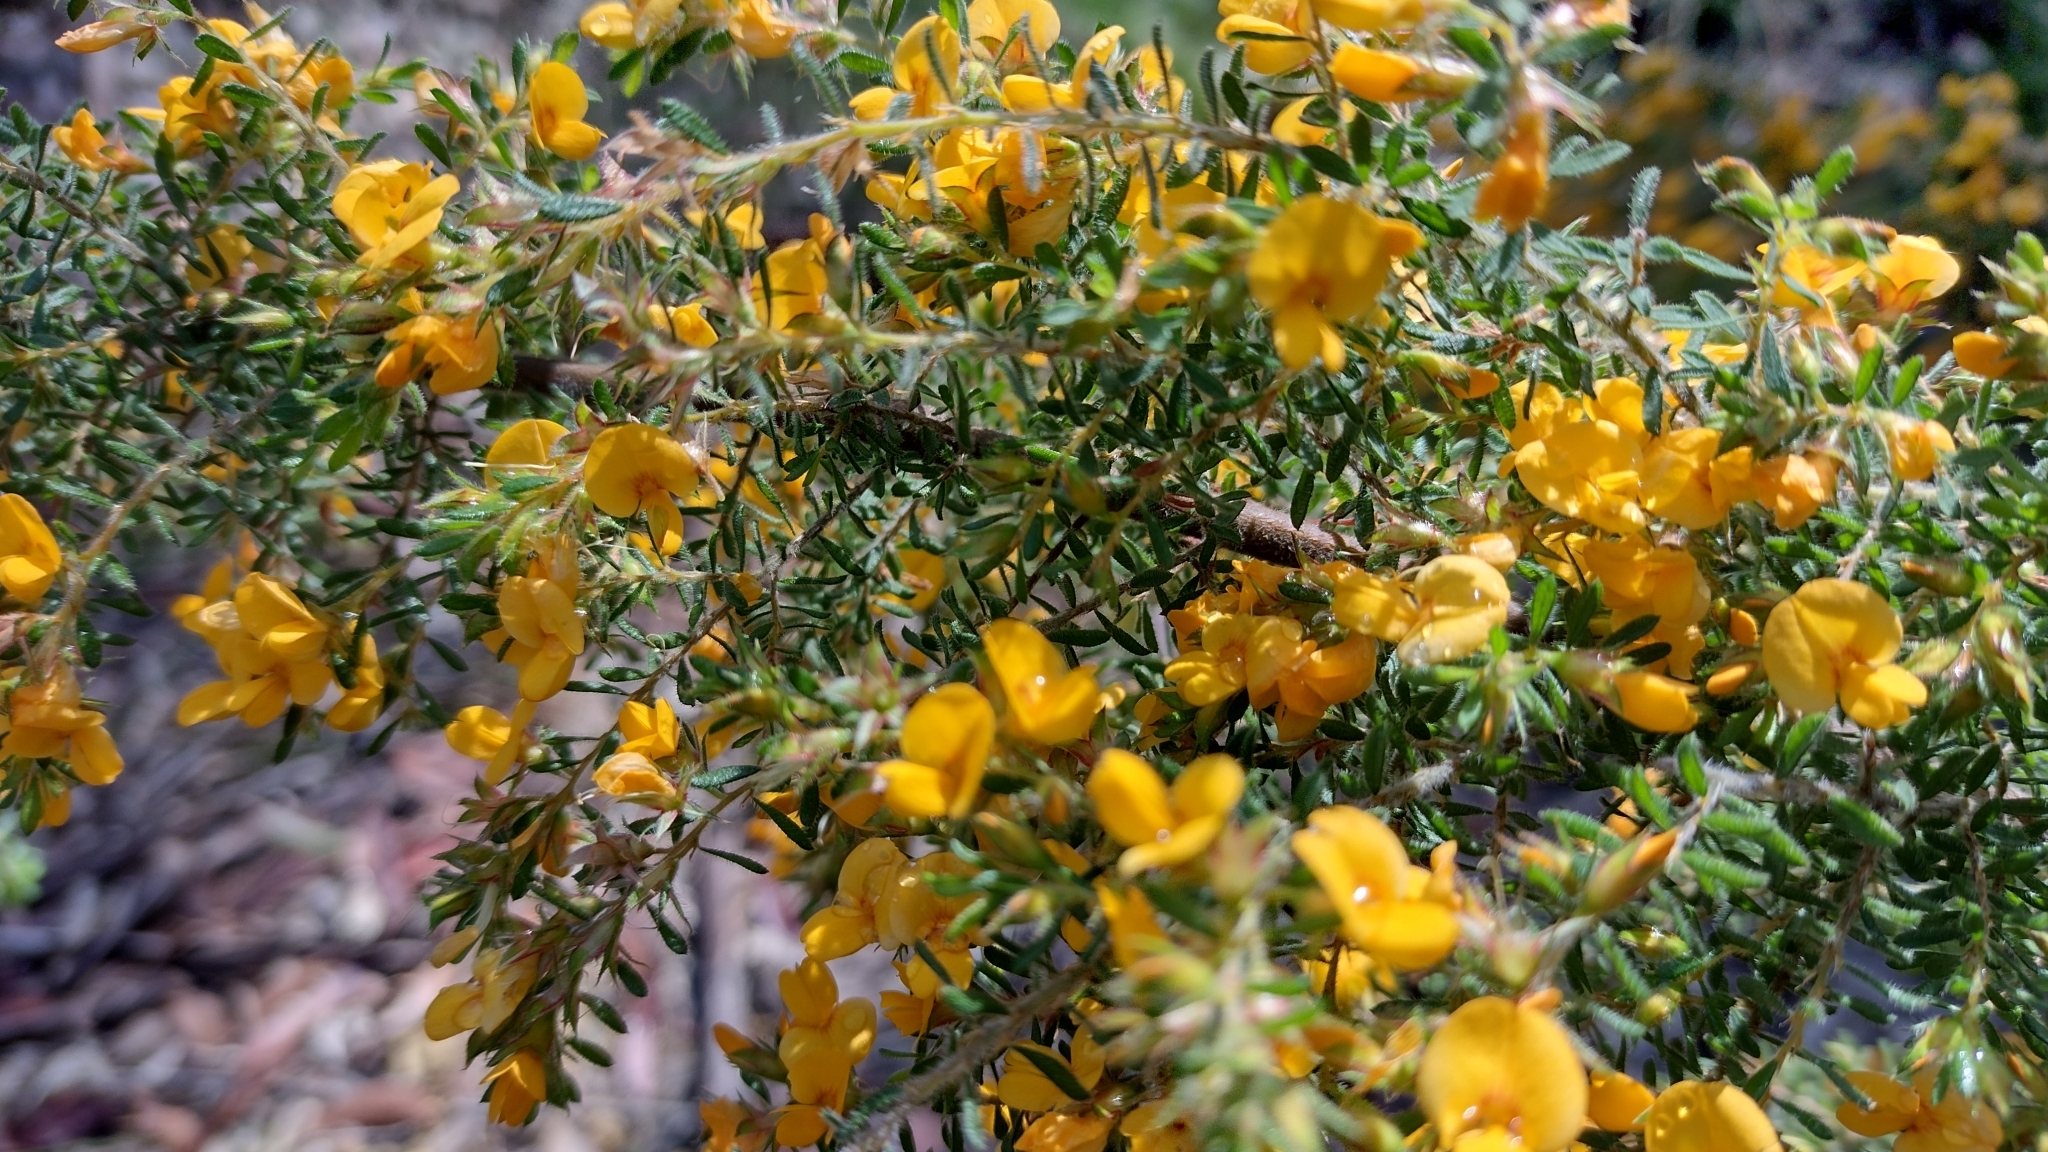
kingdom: Plantae
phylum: Tracheophyta
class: Magnoliopsida
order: Fabales
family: Fabaceae
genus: Pultenaea
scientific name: Pultenaea villosa
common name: Bronze bush-pea
